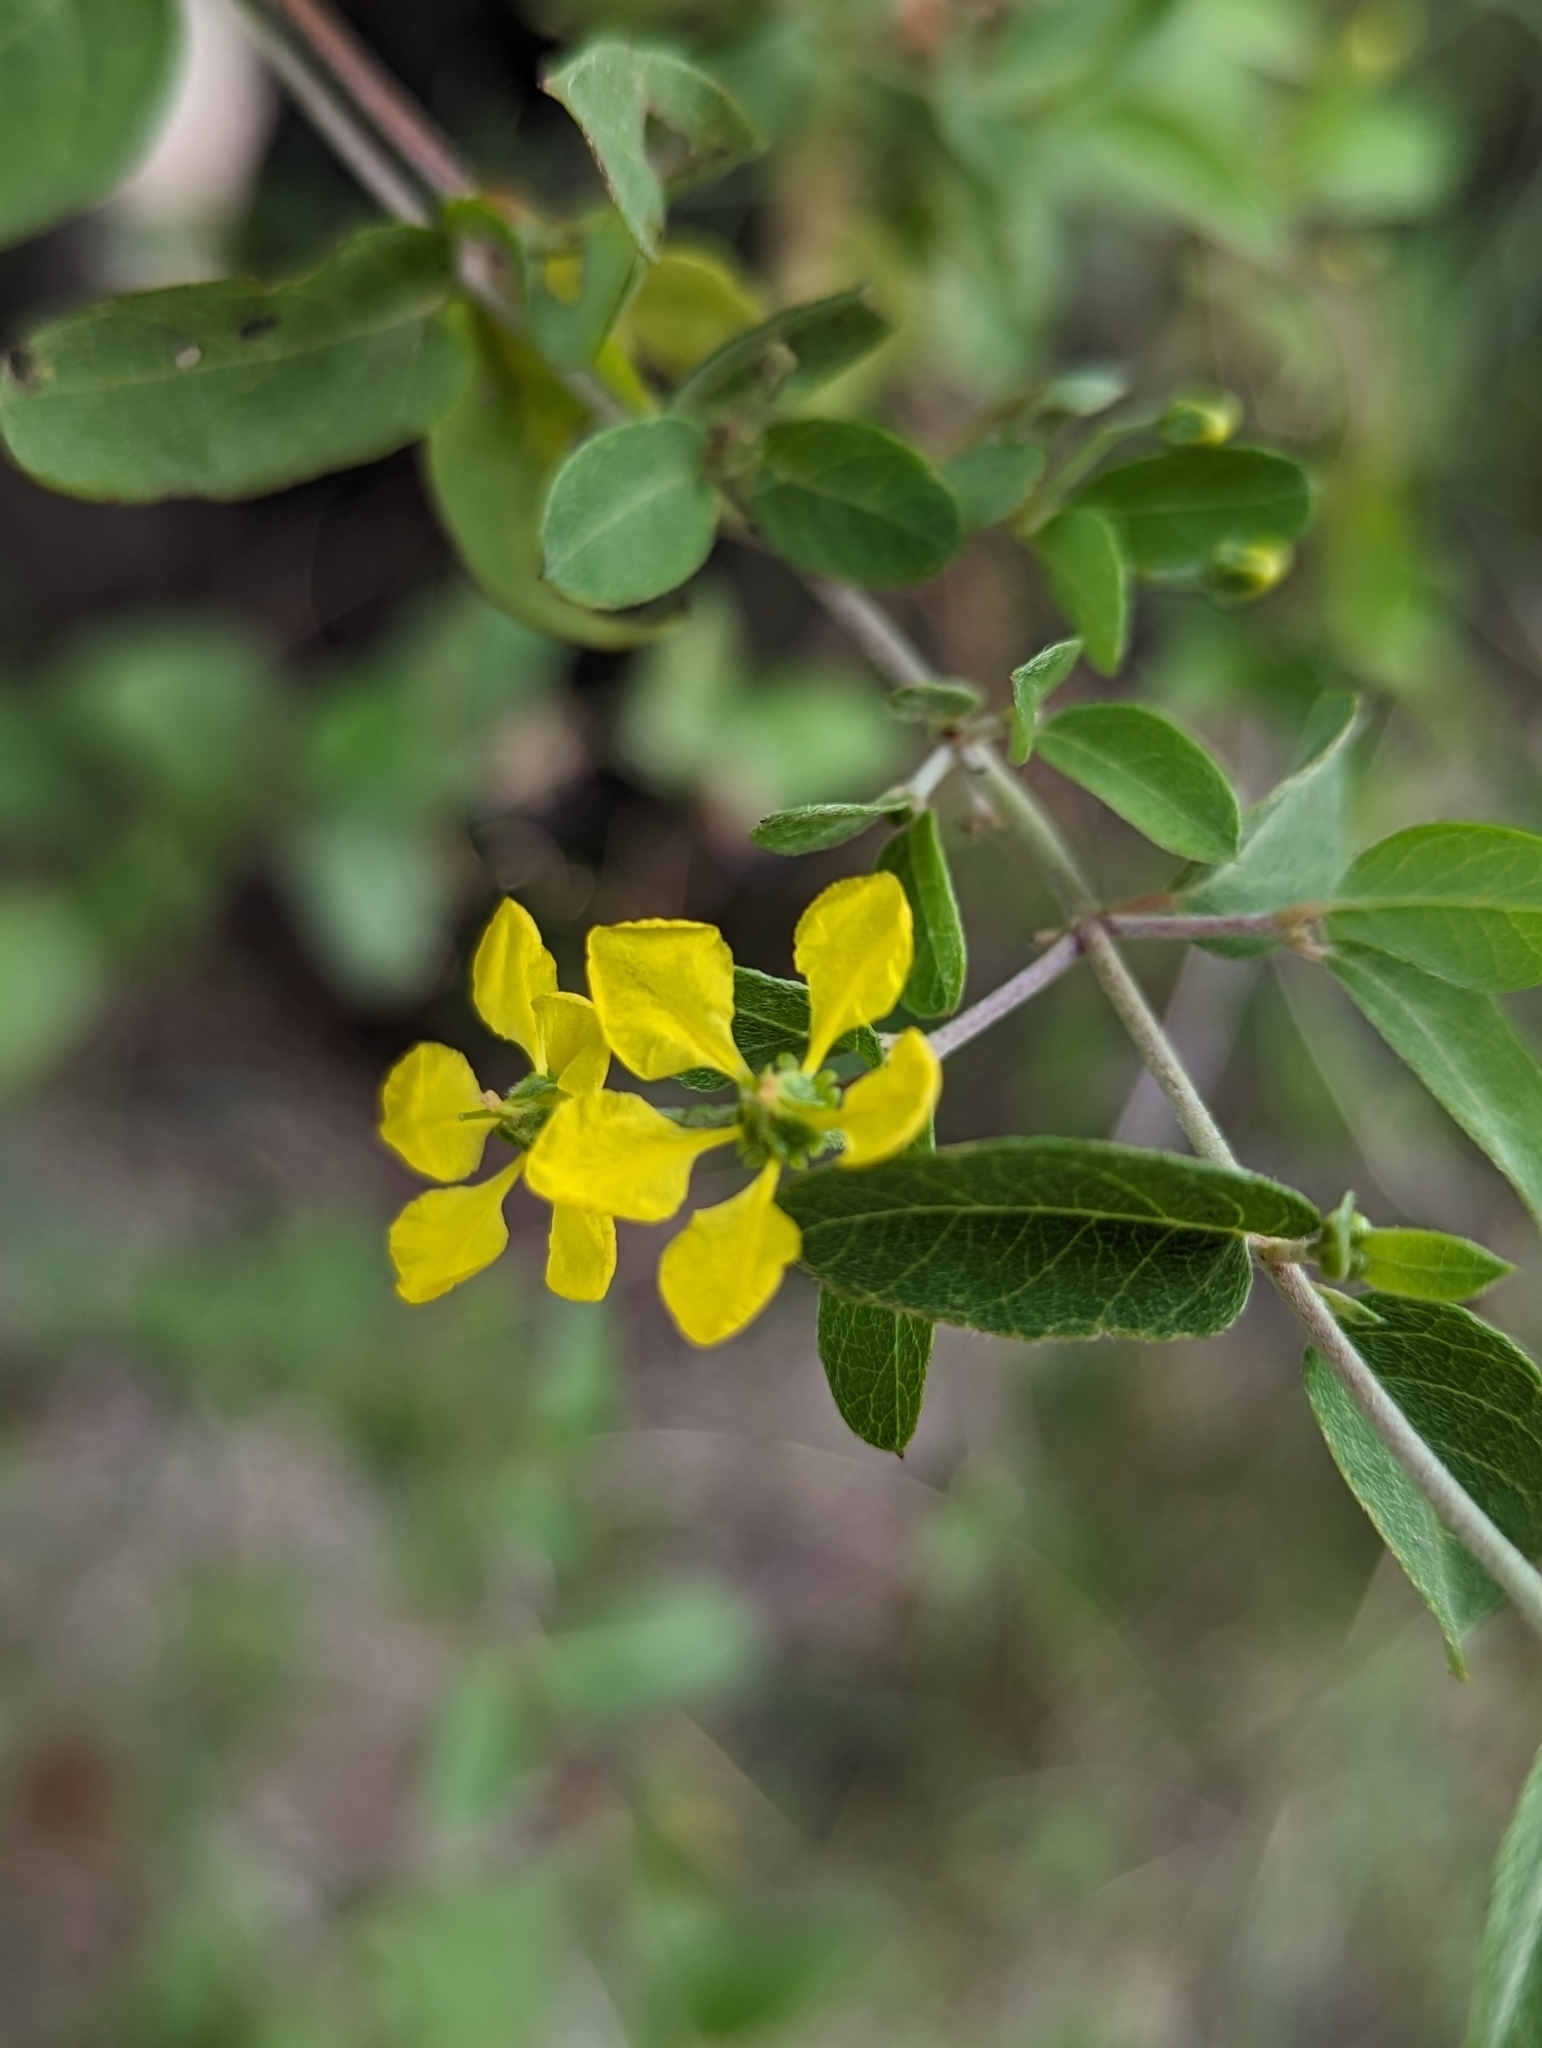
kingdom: Plantae
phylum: Tracheophyta
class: Magnoliopsida
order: Malpighiales
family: Malpighiaceae
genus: Cottsia
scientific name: Cottsia californica
